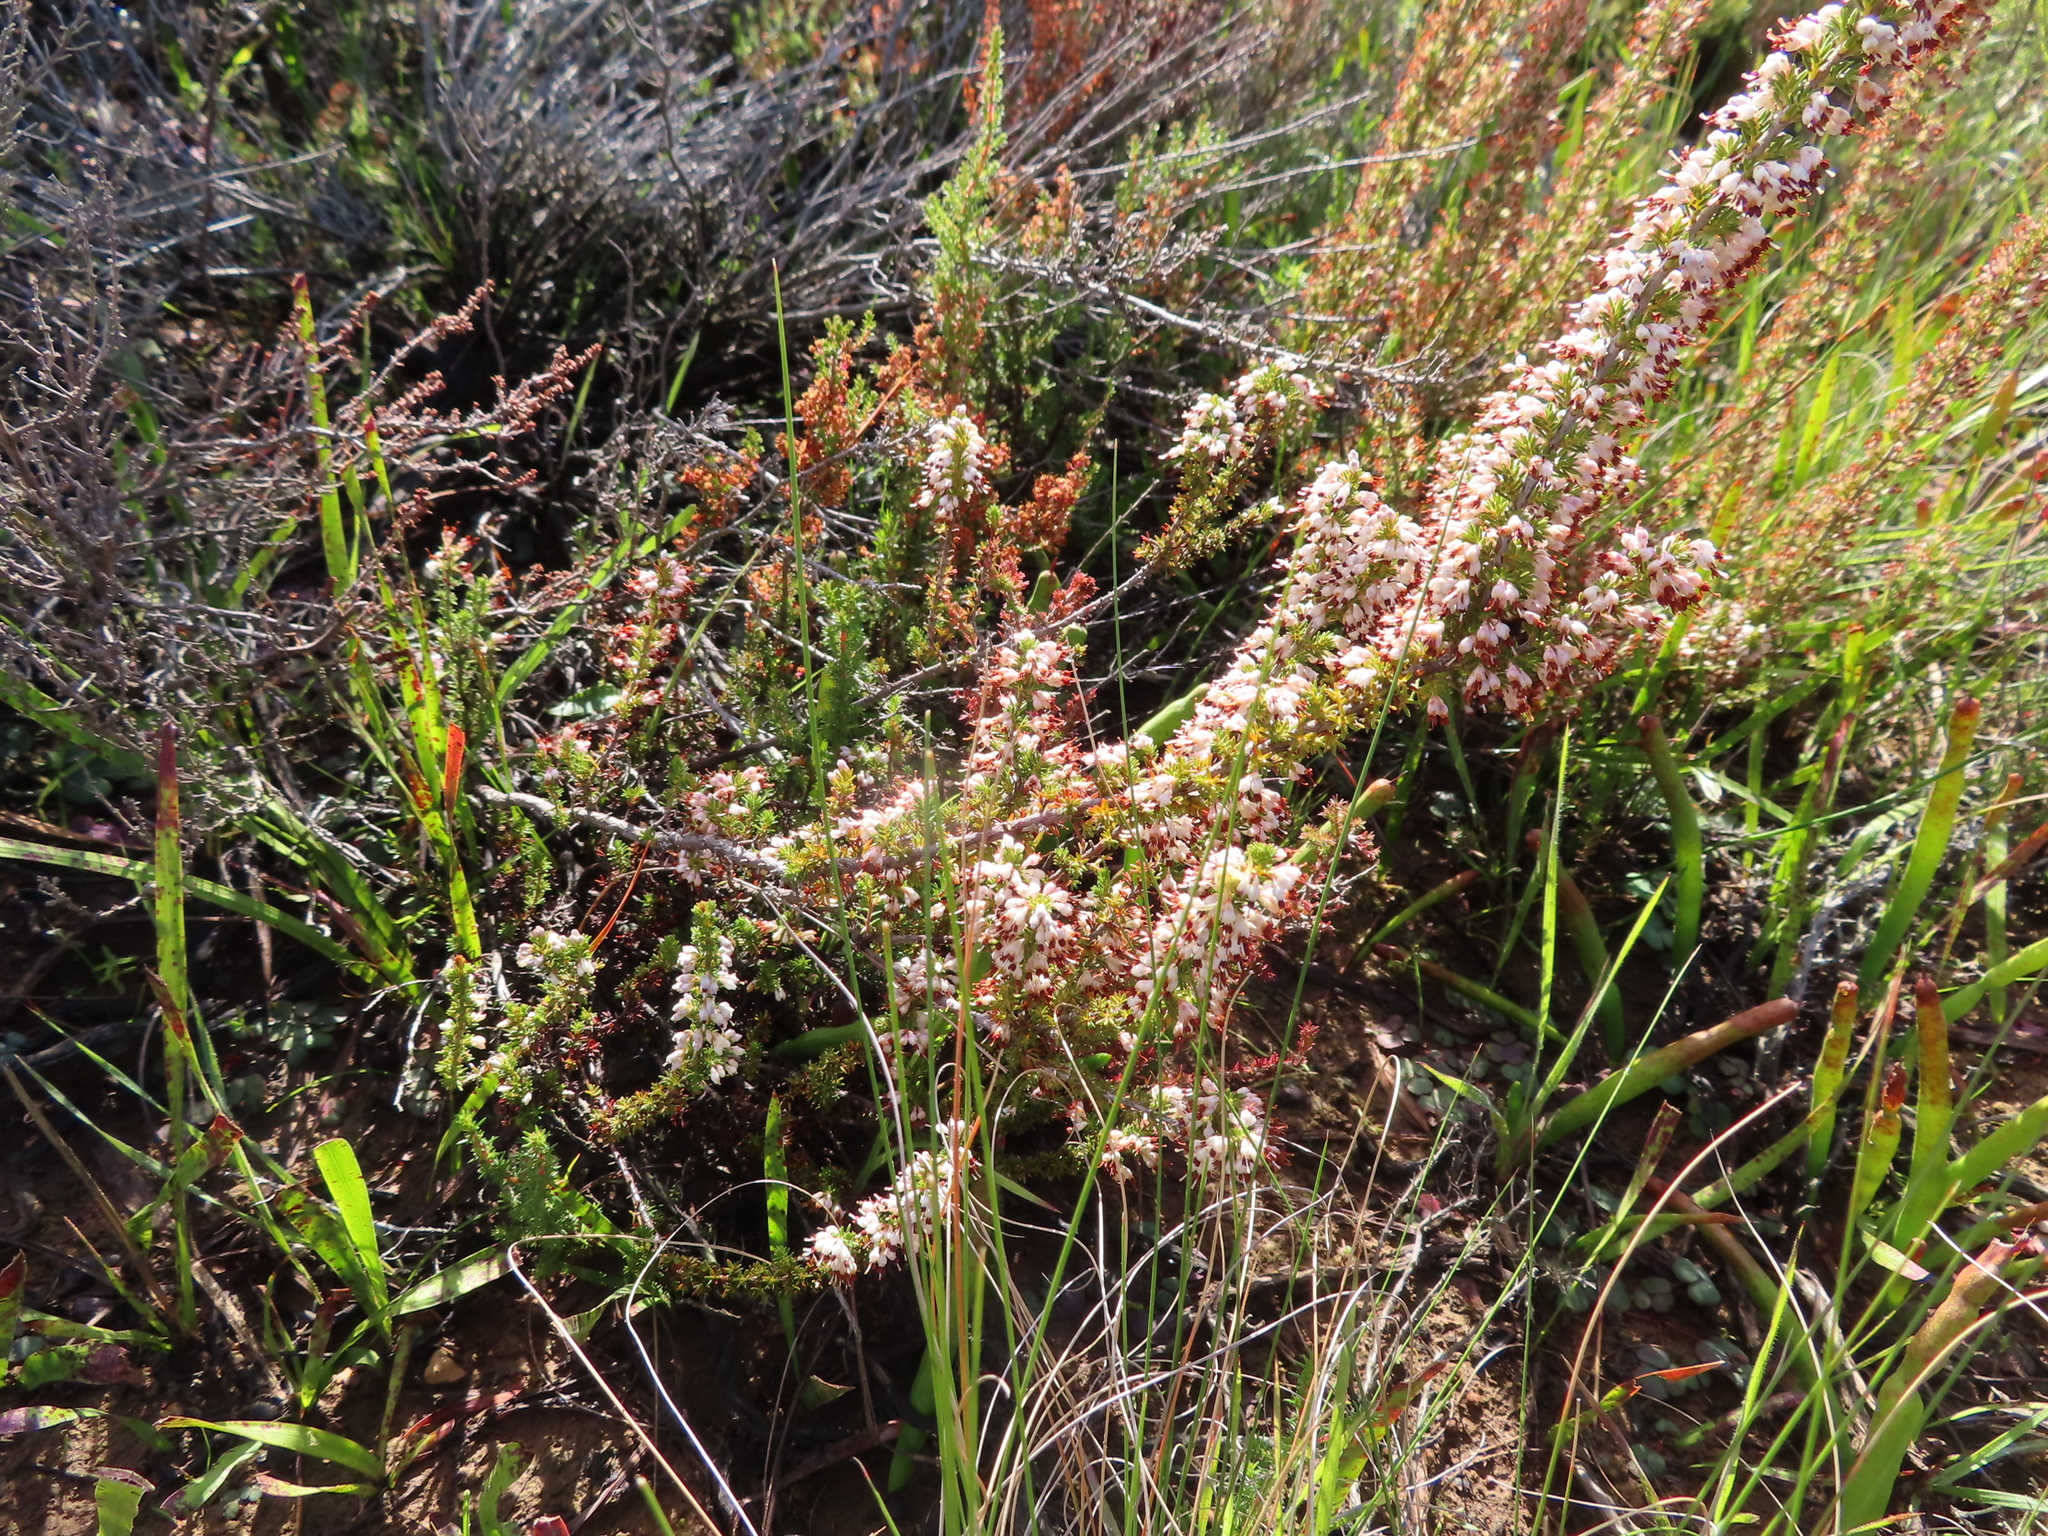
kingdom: Plantae
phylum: Tracheophyta
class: Magnoliopsida
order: Ericales
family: Ericaceae
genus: Erica
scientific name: Erica imbricata
